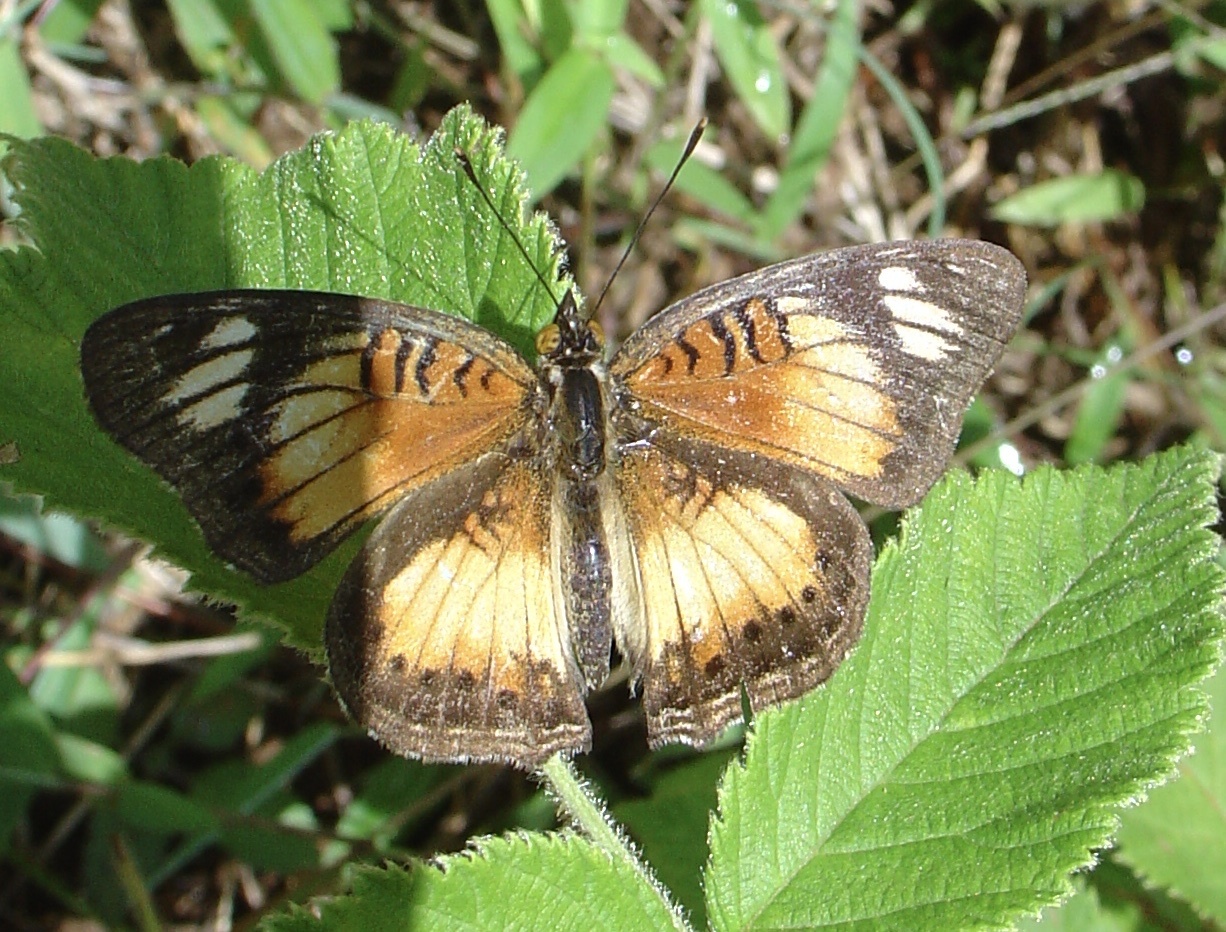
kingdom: Animalia
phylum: Arthropoda
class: Insecta
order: Lepidoptera
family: Nymphalidae
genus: Junonia
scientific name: Junonia sophia
